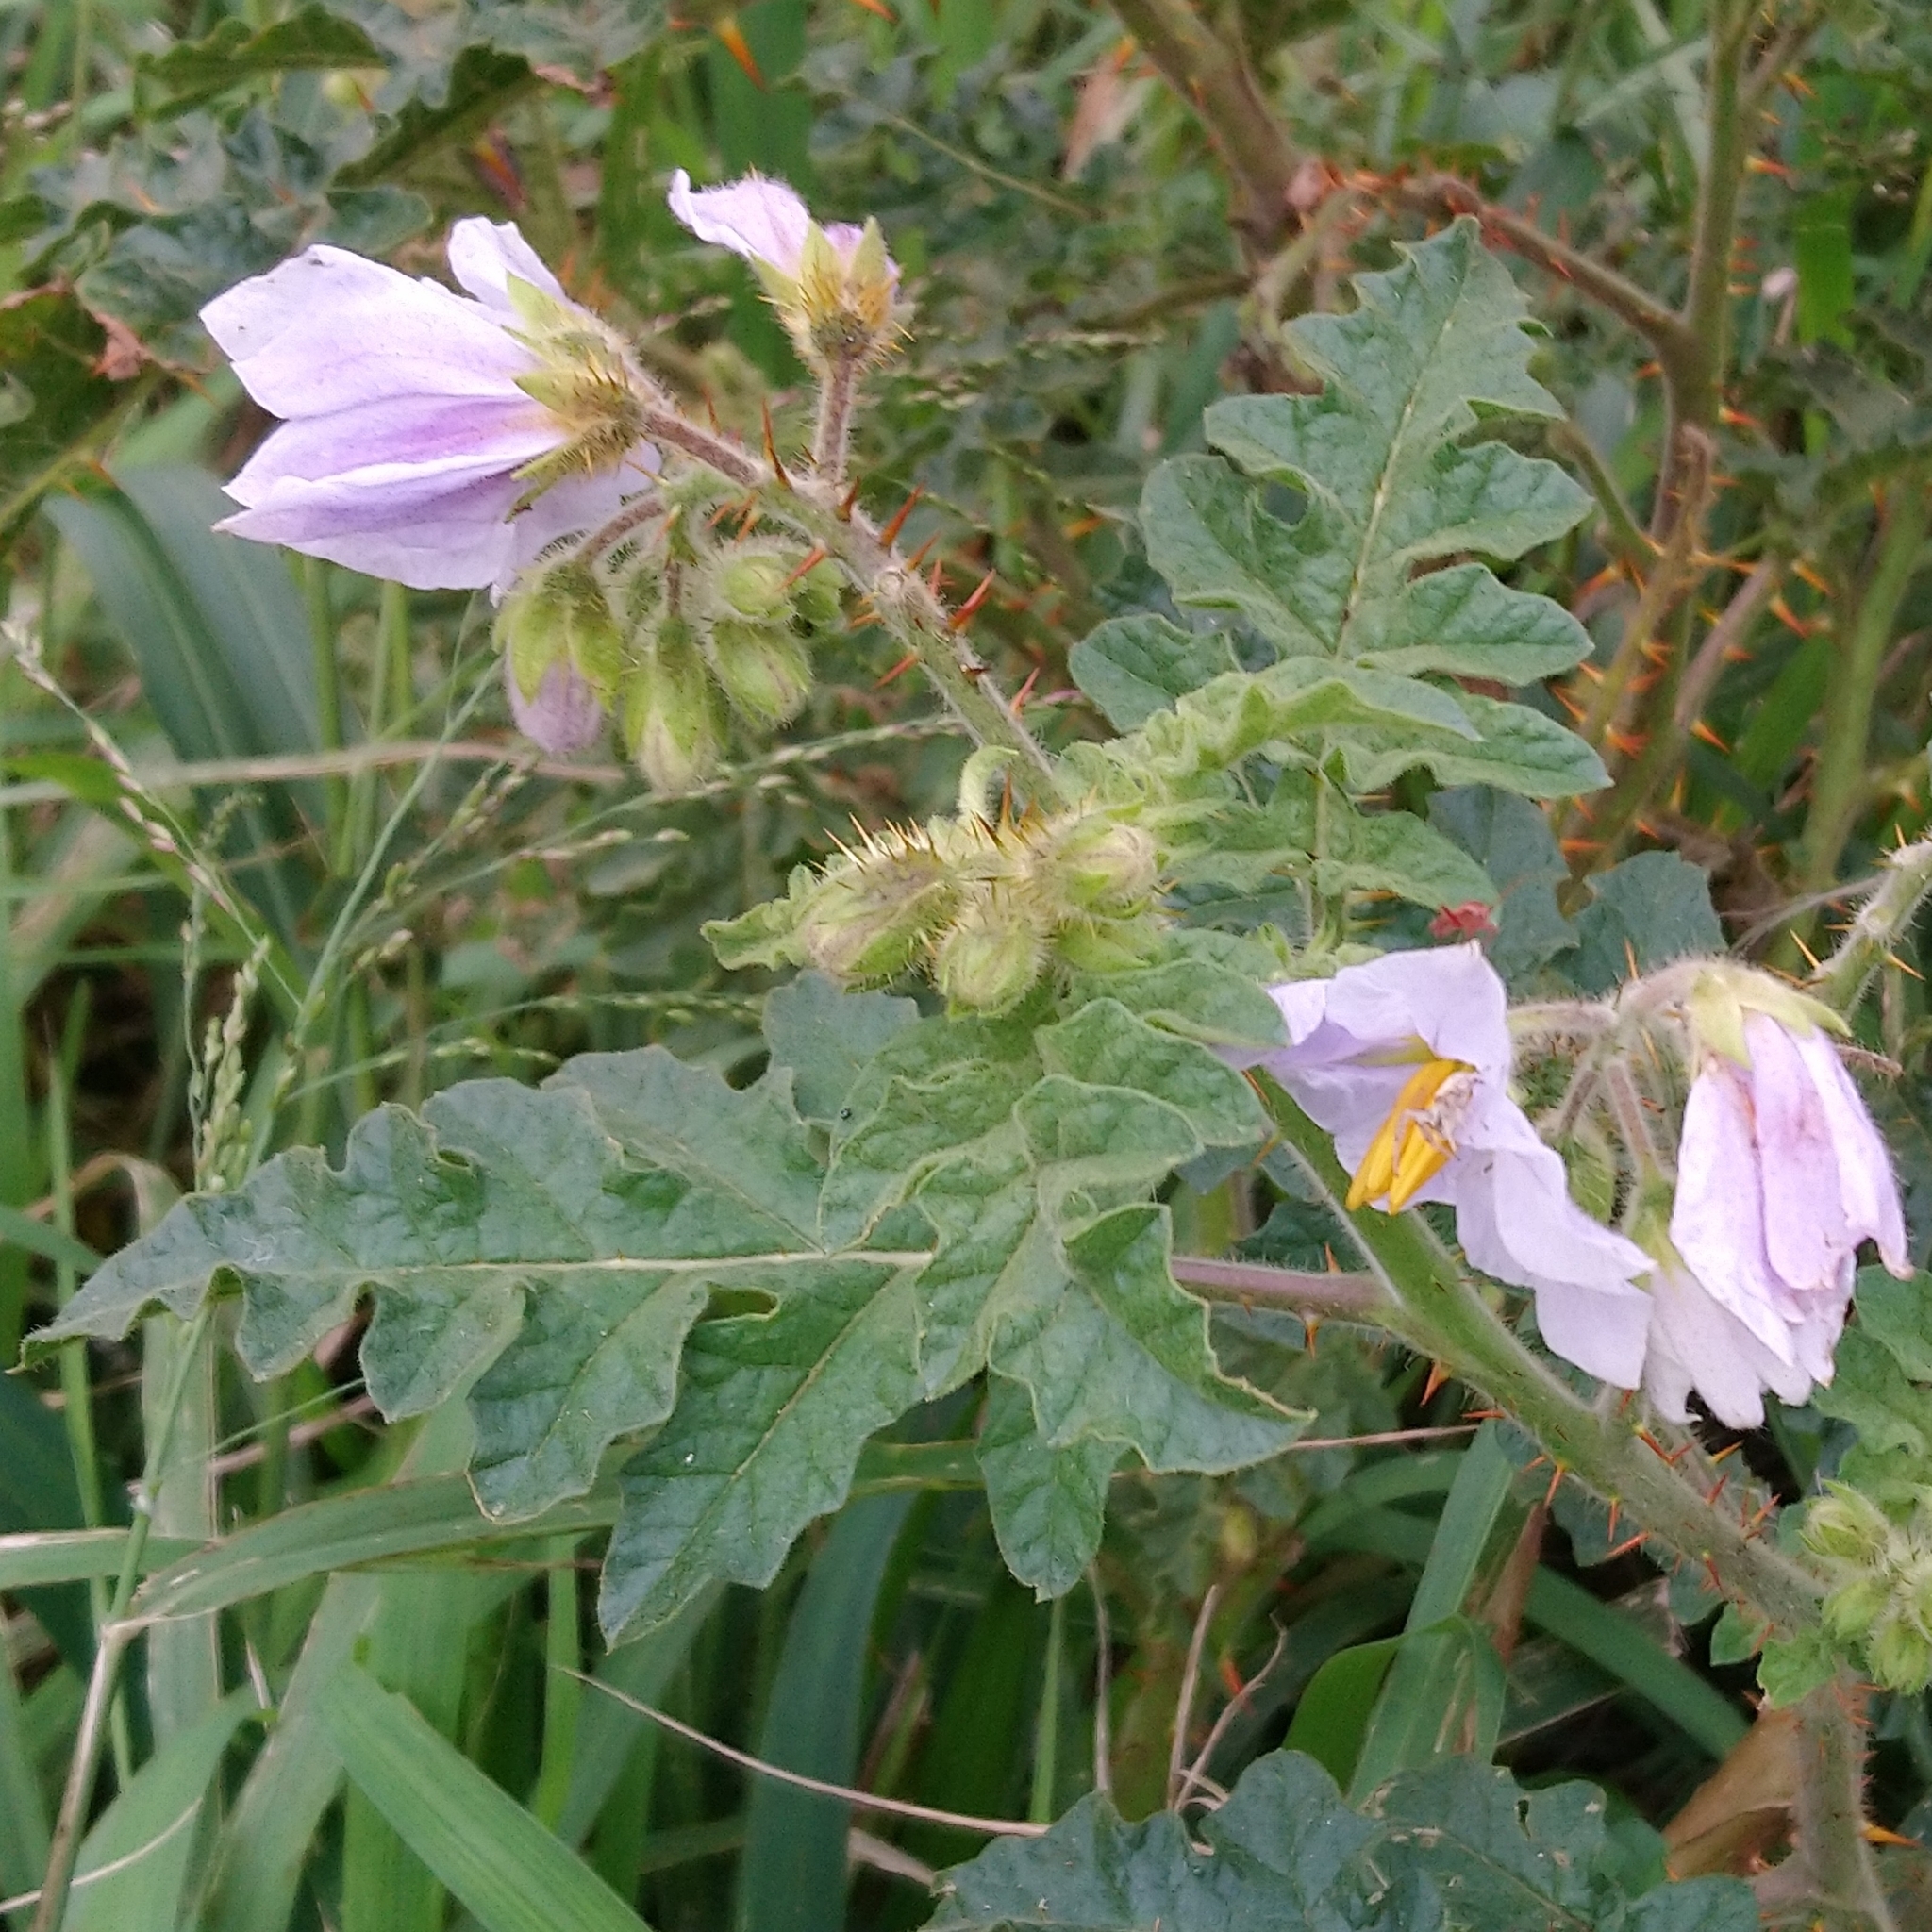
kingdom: Plantae
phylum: Tracheophyta
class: Magnoliopsida
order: Solanales
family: Solanaceae
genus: Solanum
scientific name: Solanum sisymbriifolium
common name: Red buffalo-bur
